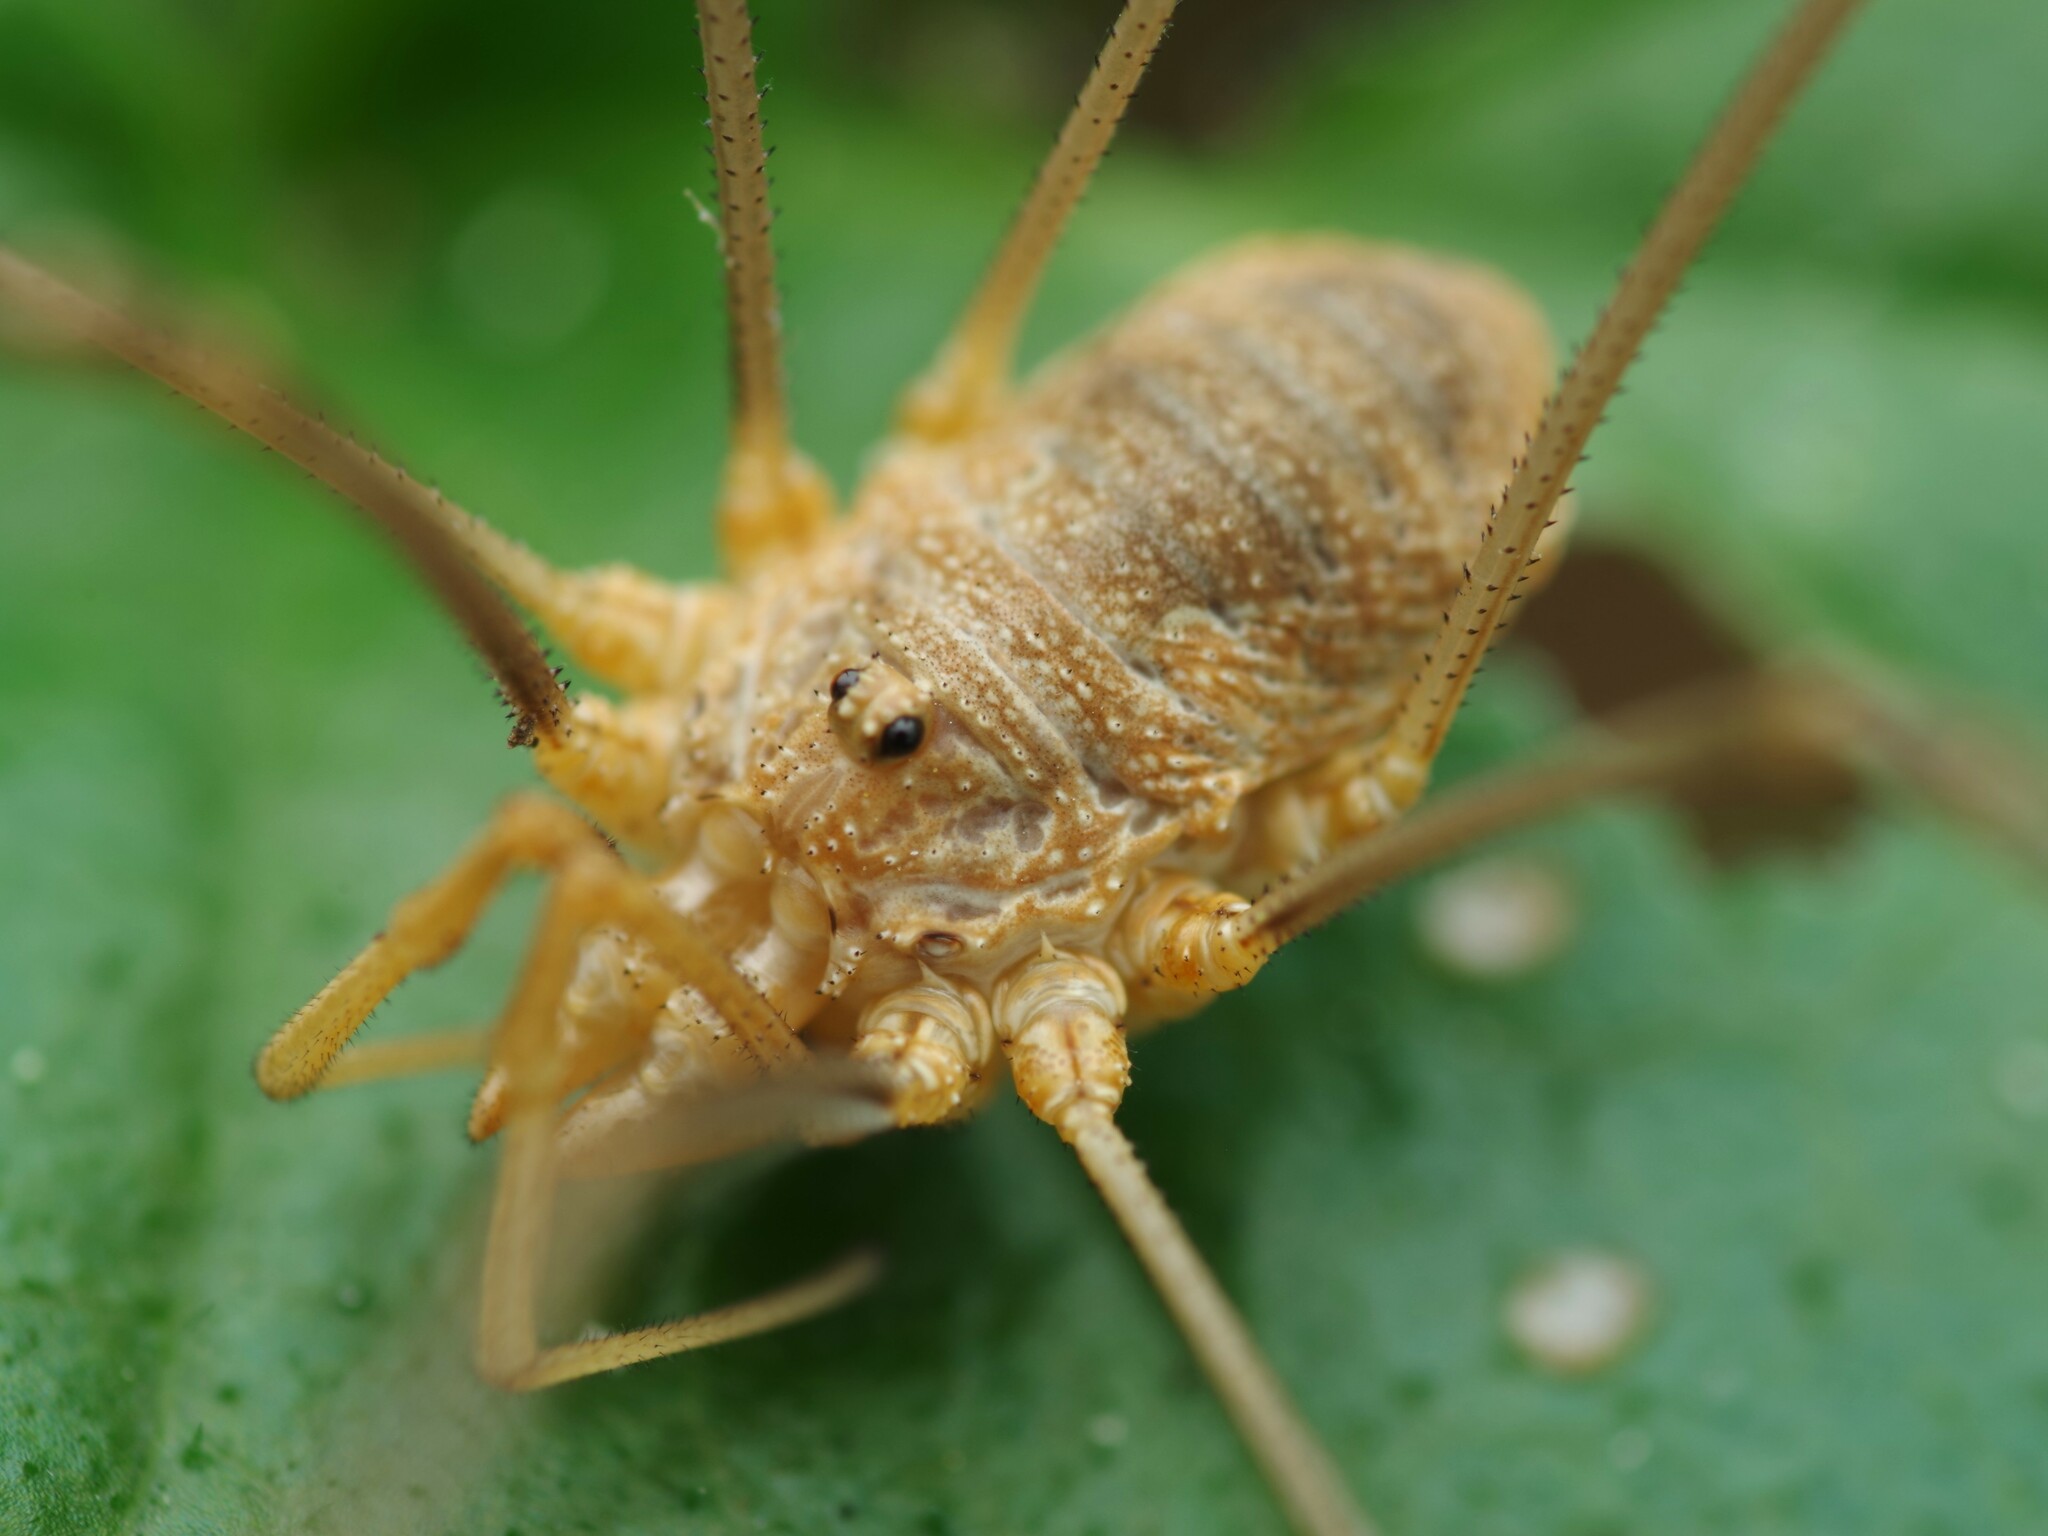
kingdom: Animalia
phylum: Arthropoda
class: Arachnida
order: Opiliones
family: Phalangiidae
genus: Phalangium
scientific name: Phalangium opilio
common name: Daddy longleg
